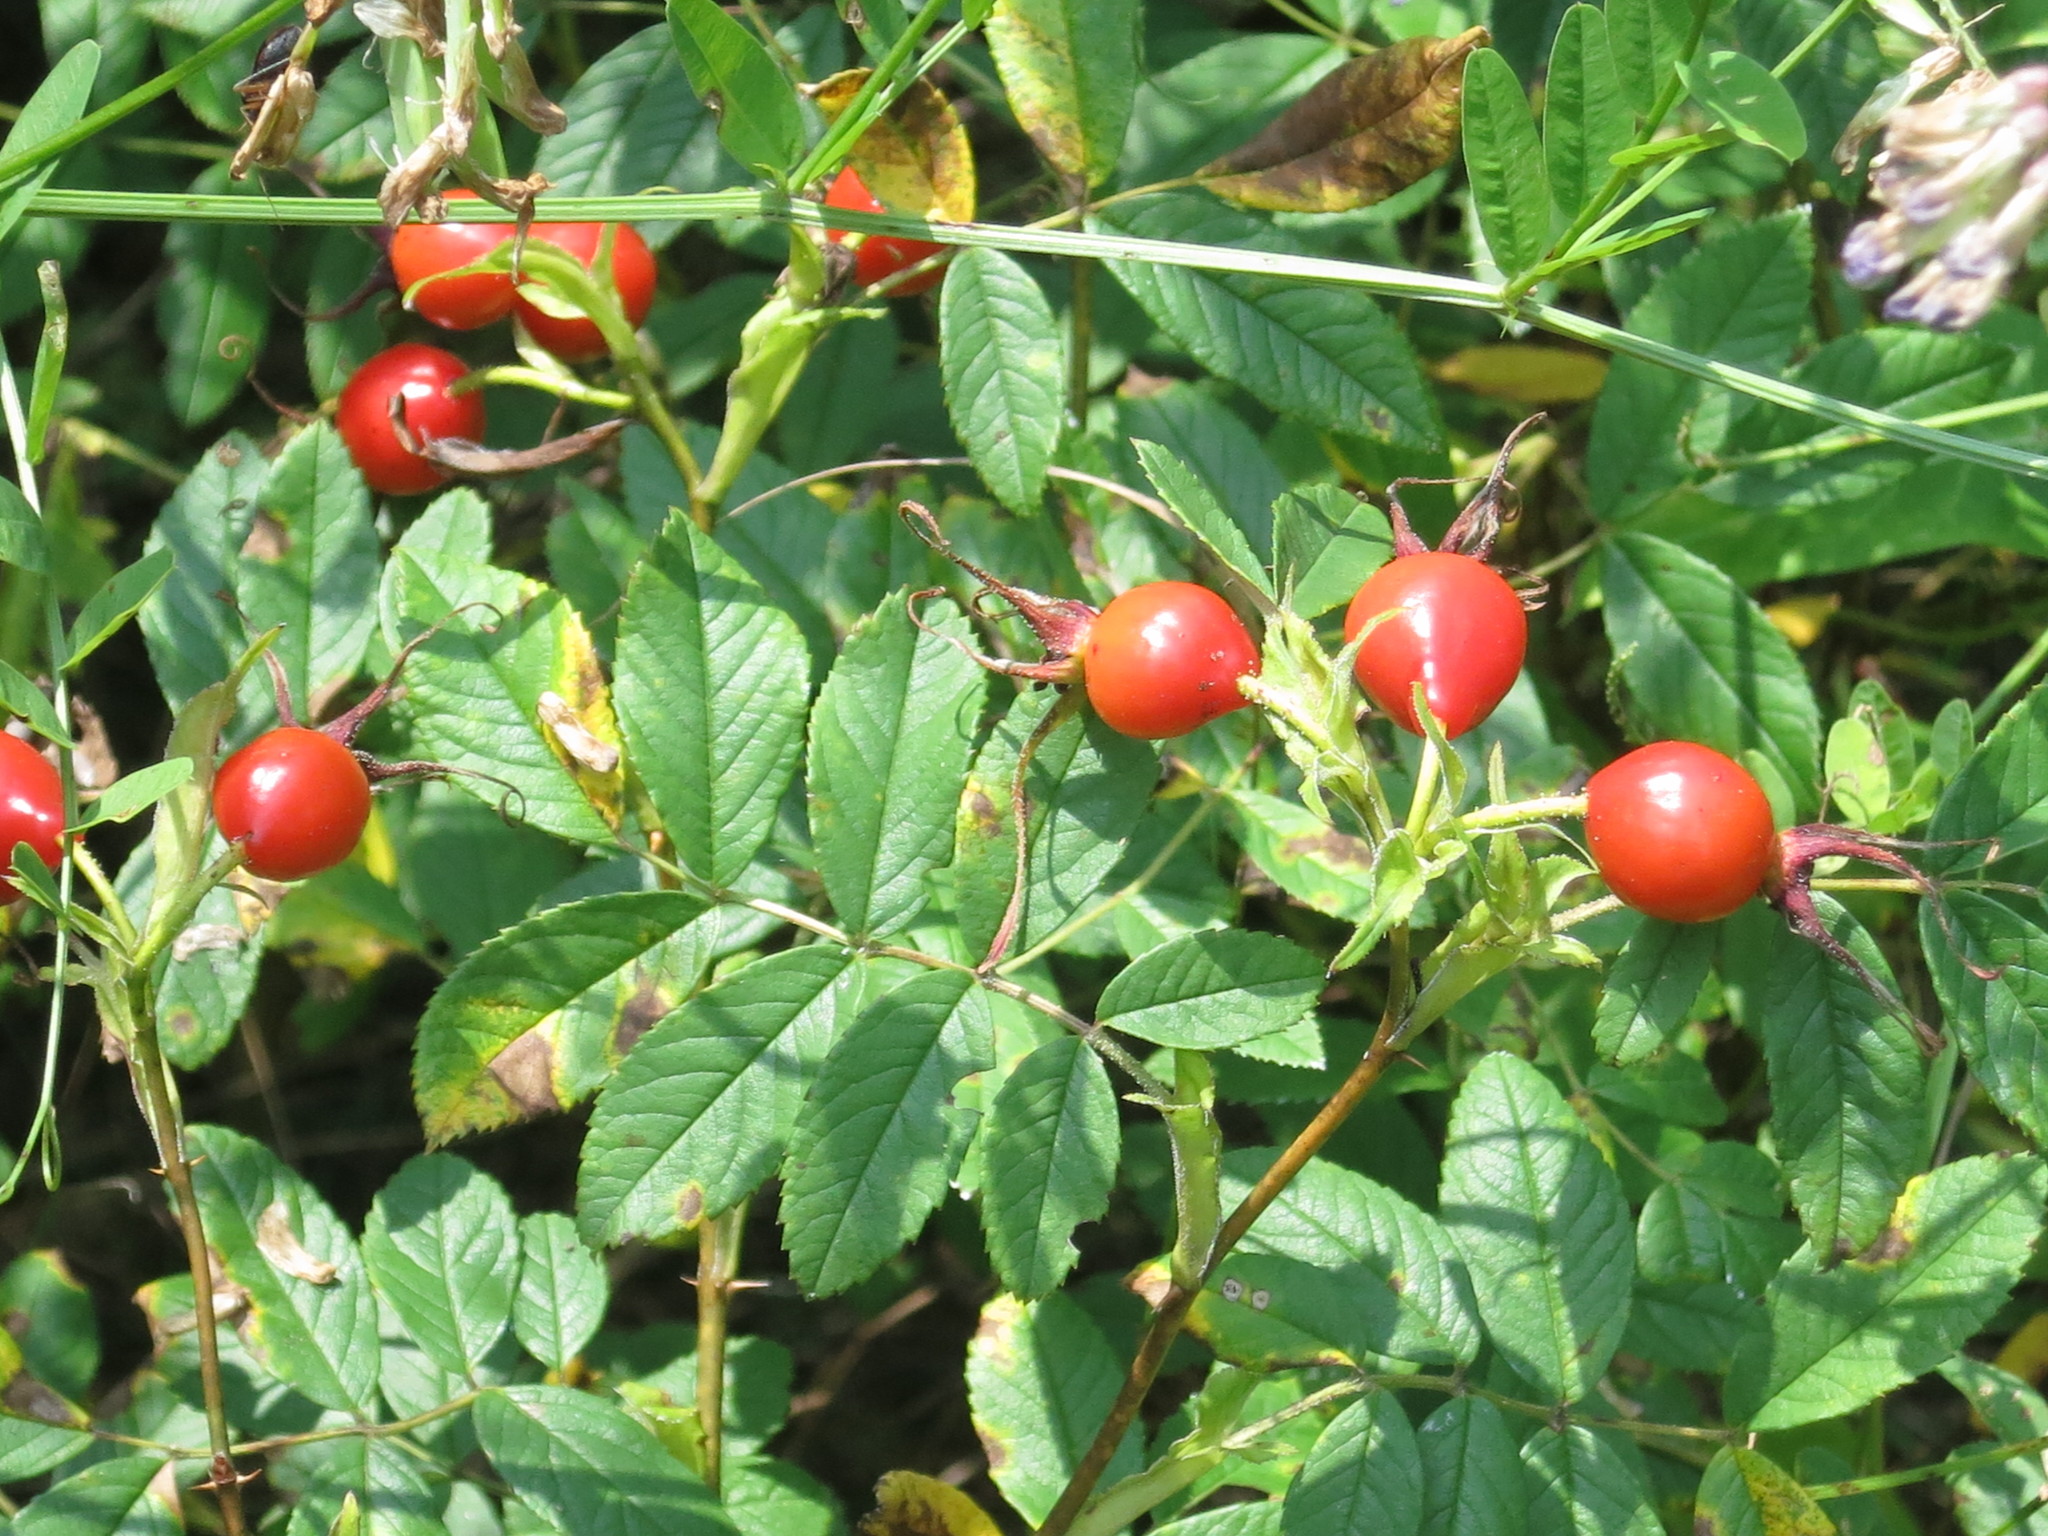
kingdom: Plantae
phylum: Tracheophyta
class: Magnoliopsida
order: Rosales
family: Rosaceae
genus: Rosa
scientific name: Rosa davurica
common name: Amur rose
